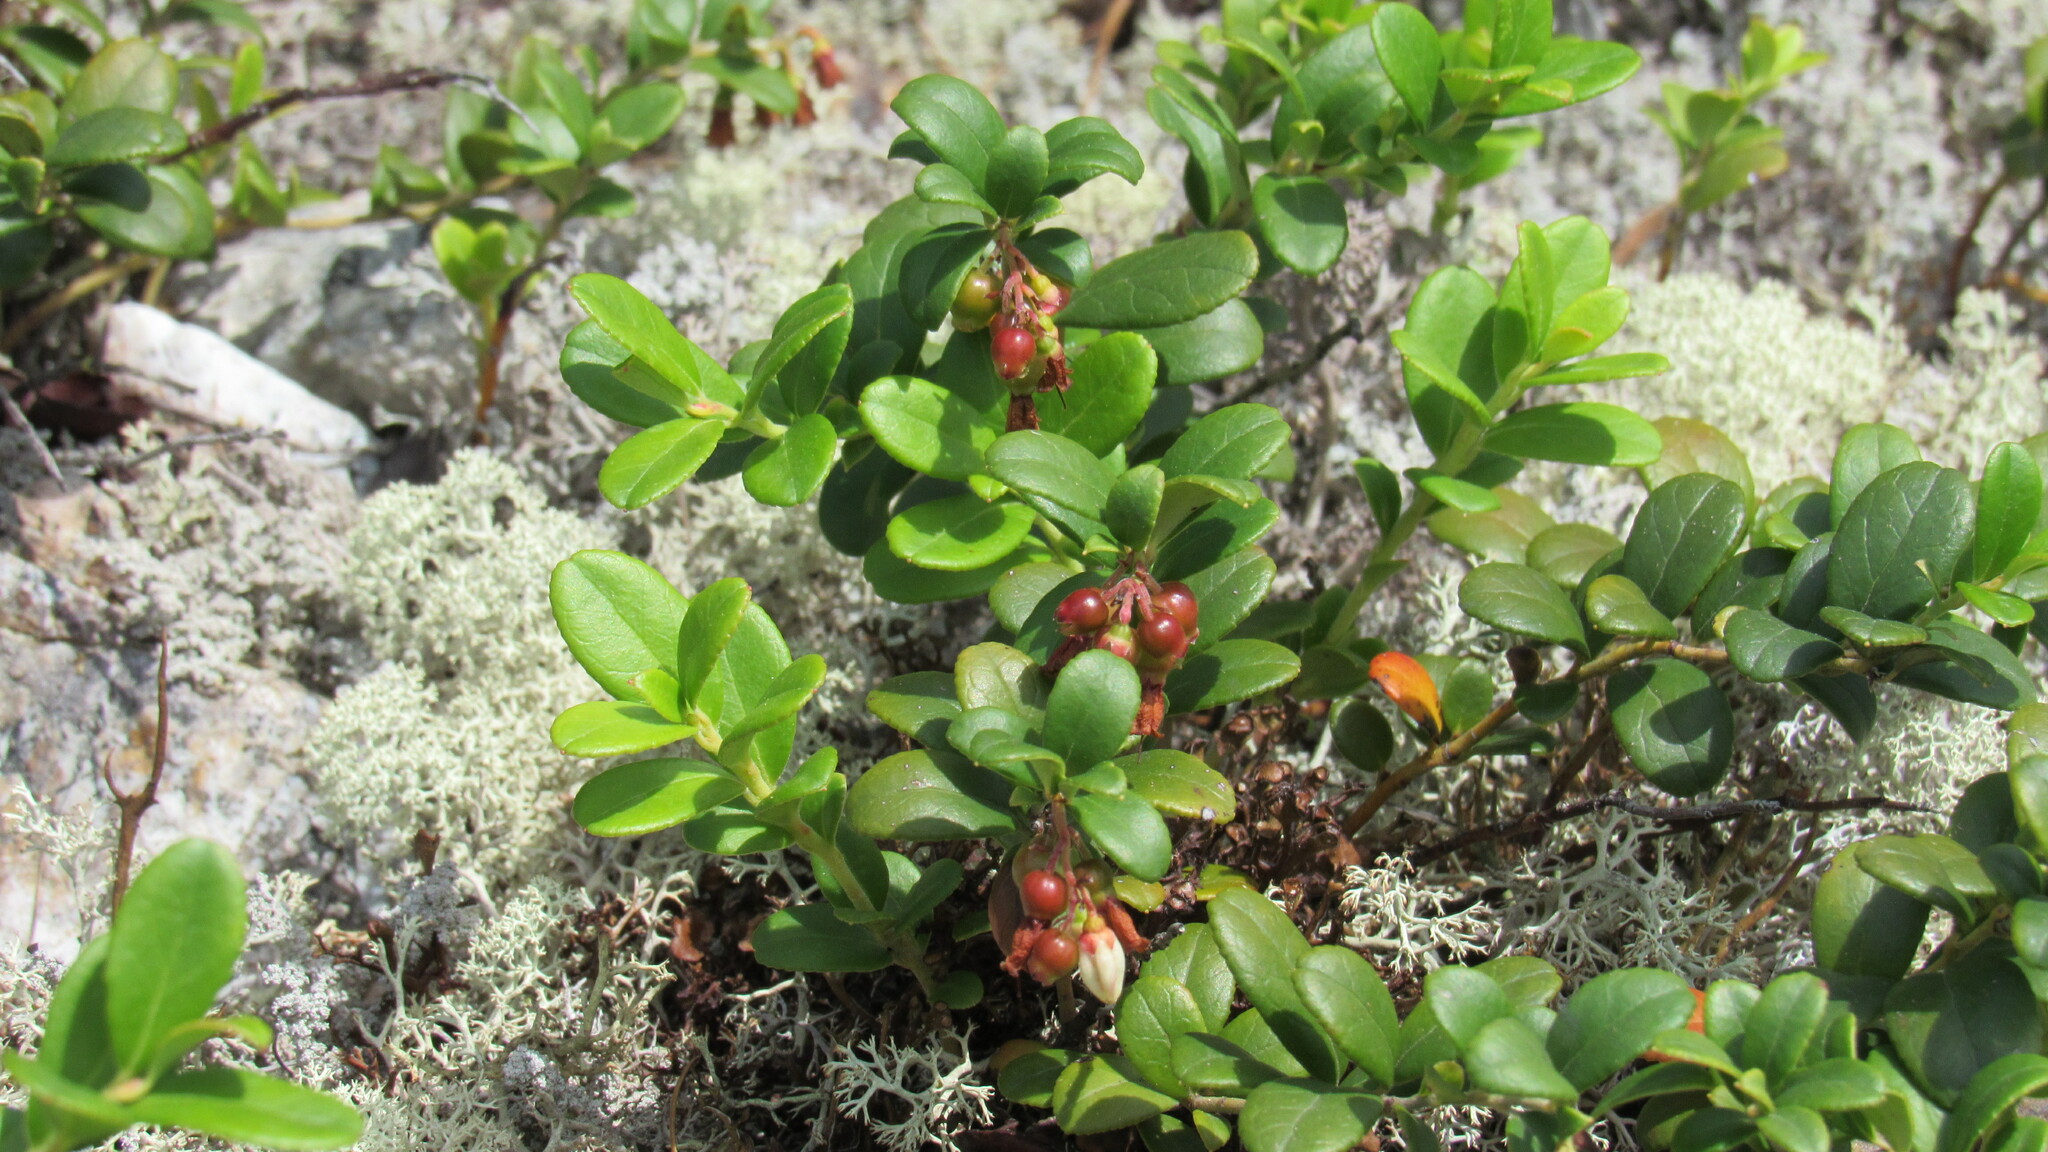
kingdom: Plantae
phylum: Tracheophyta
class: Magnoliopsida
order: Ericales
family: Ericaceae
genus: Vaccinium
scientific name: Vaccinium vitis-idaea
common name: Cowberry
